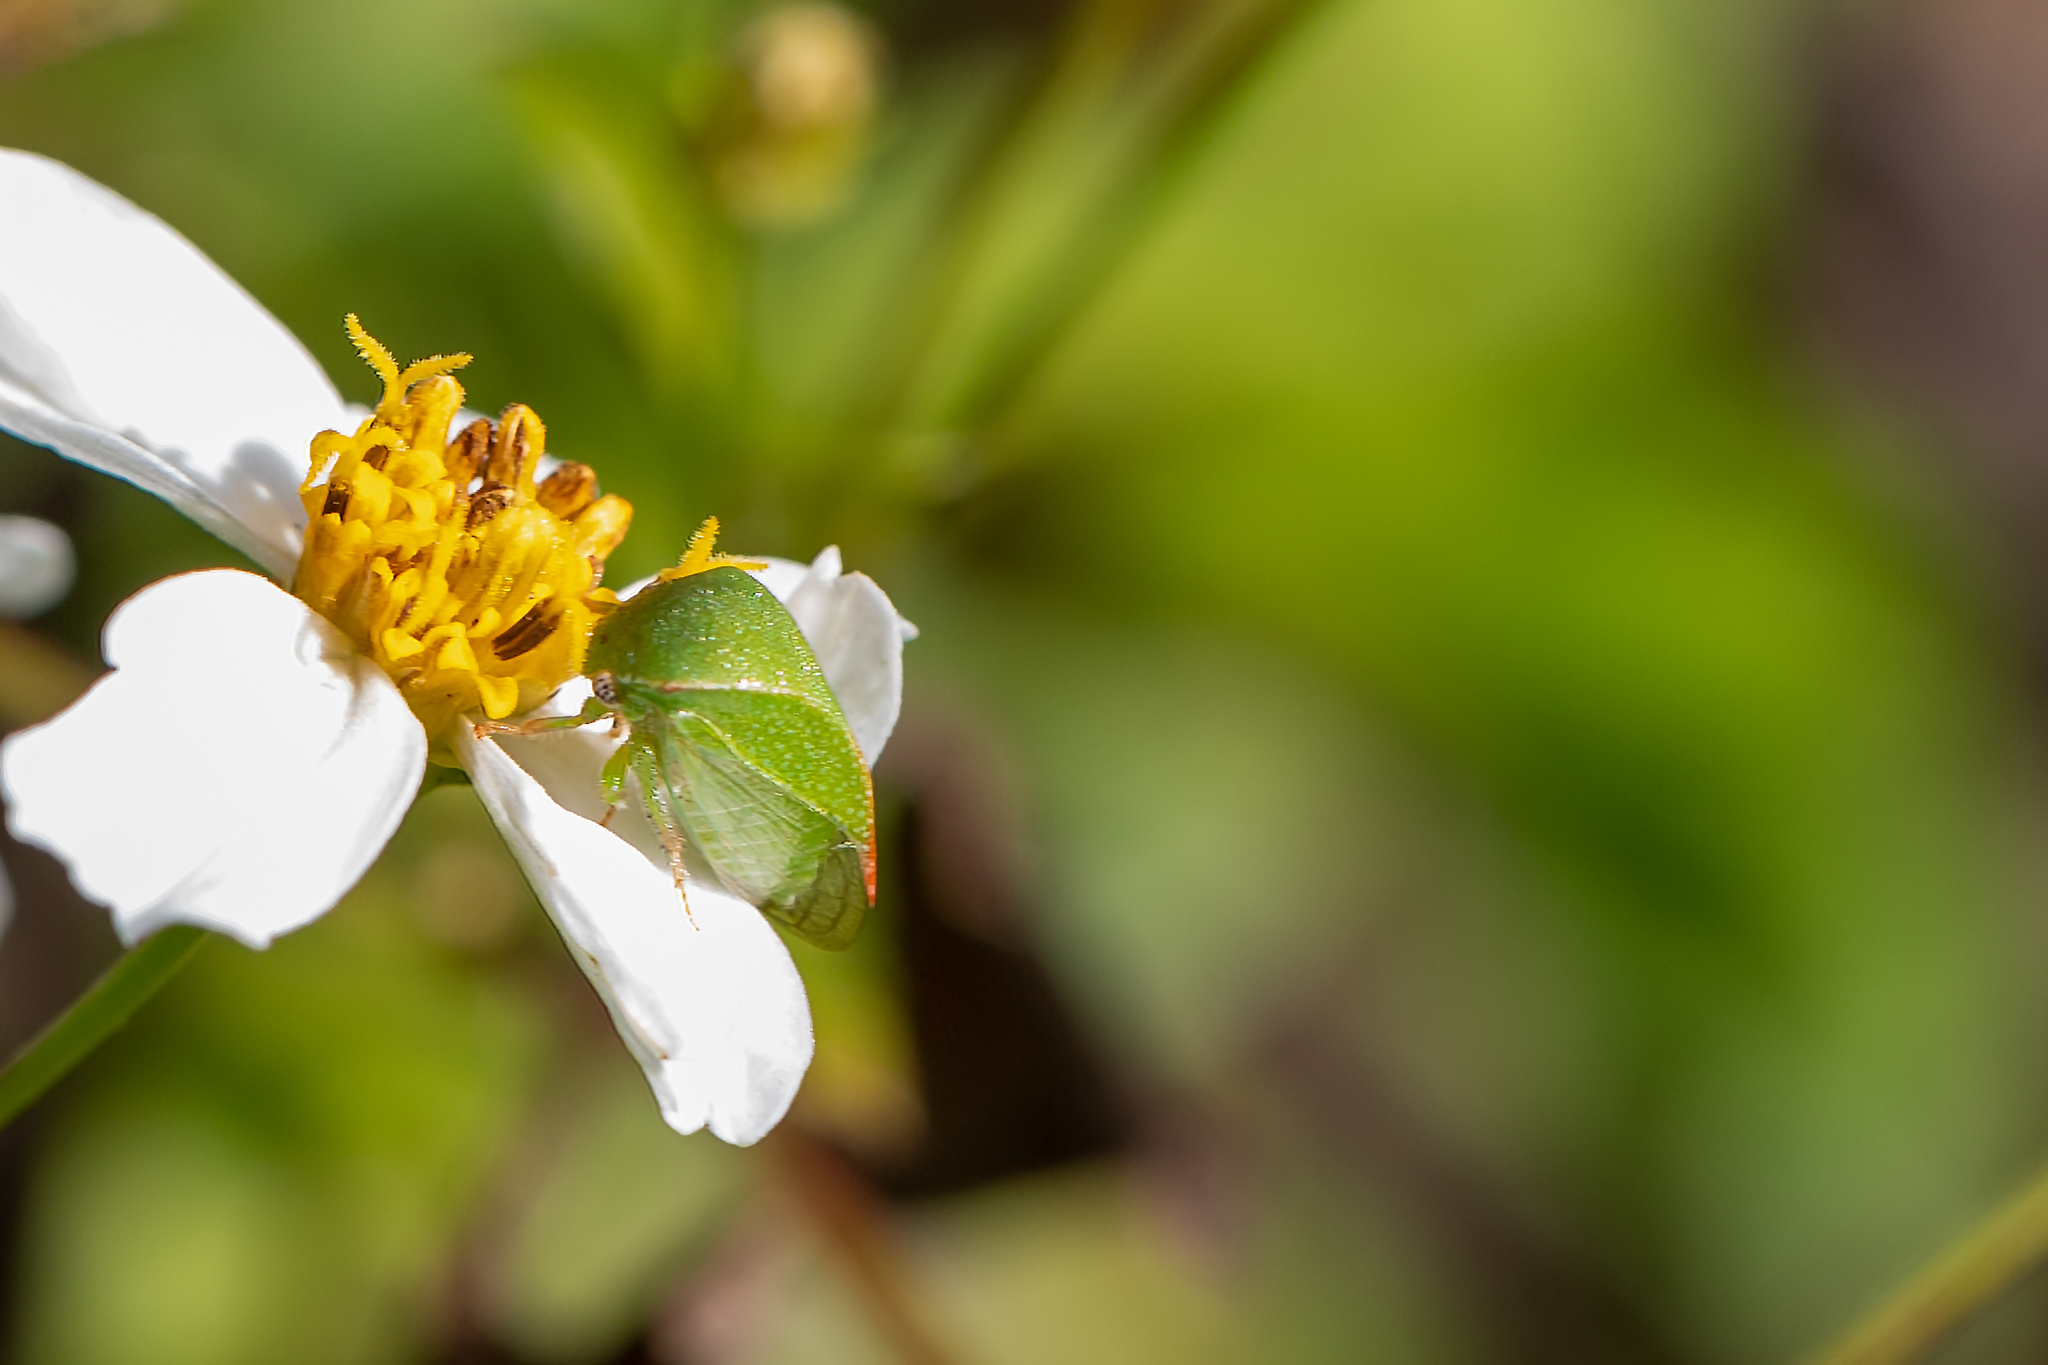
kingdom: Animalia
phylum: Arthropoda
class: Insecta
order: Hemiptera
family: Membracidae
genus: Spissistilus
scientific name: Spissistilus festina
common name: Membracid bug
